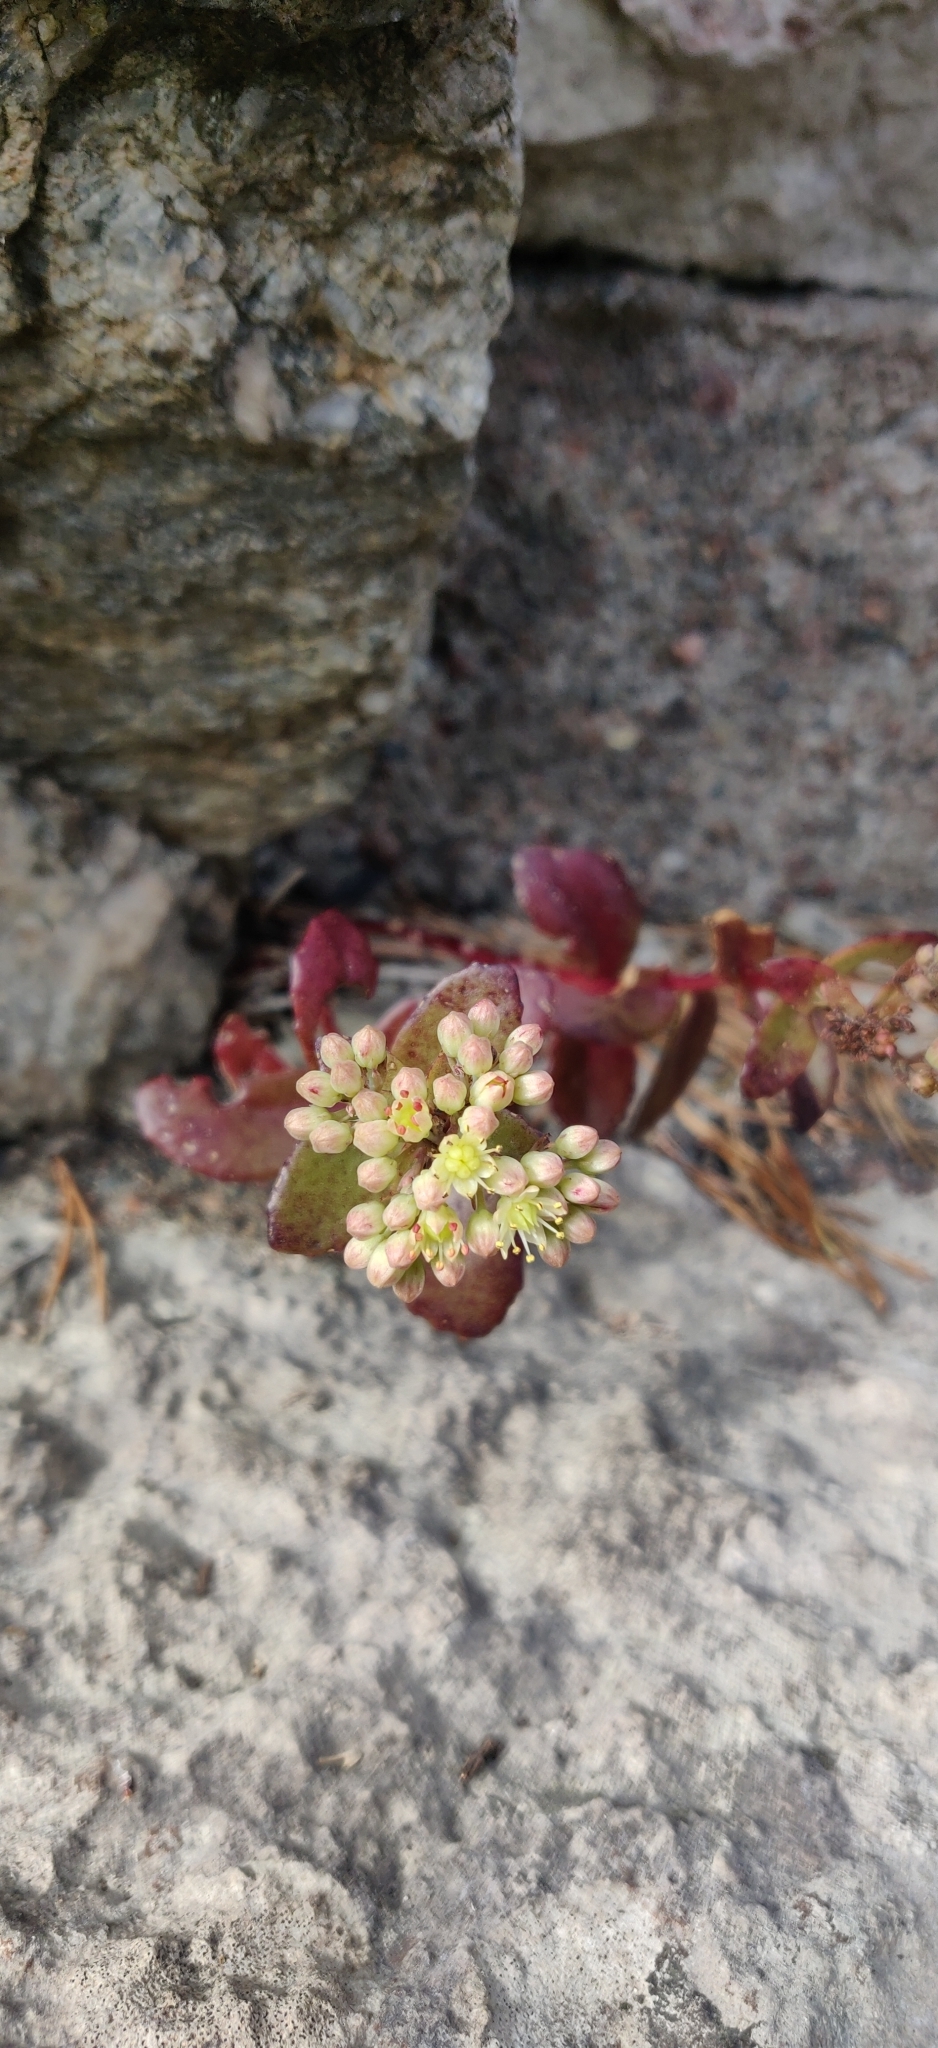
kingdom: Plantae
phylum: Tracheophyta
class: Magnoliopsida
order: Saxifragales
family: Crassulaceae
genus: Hylotelephium
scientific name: Hylotelephium maximum
